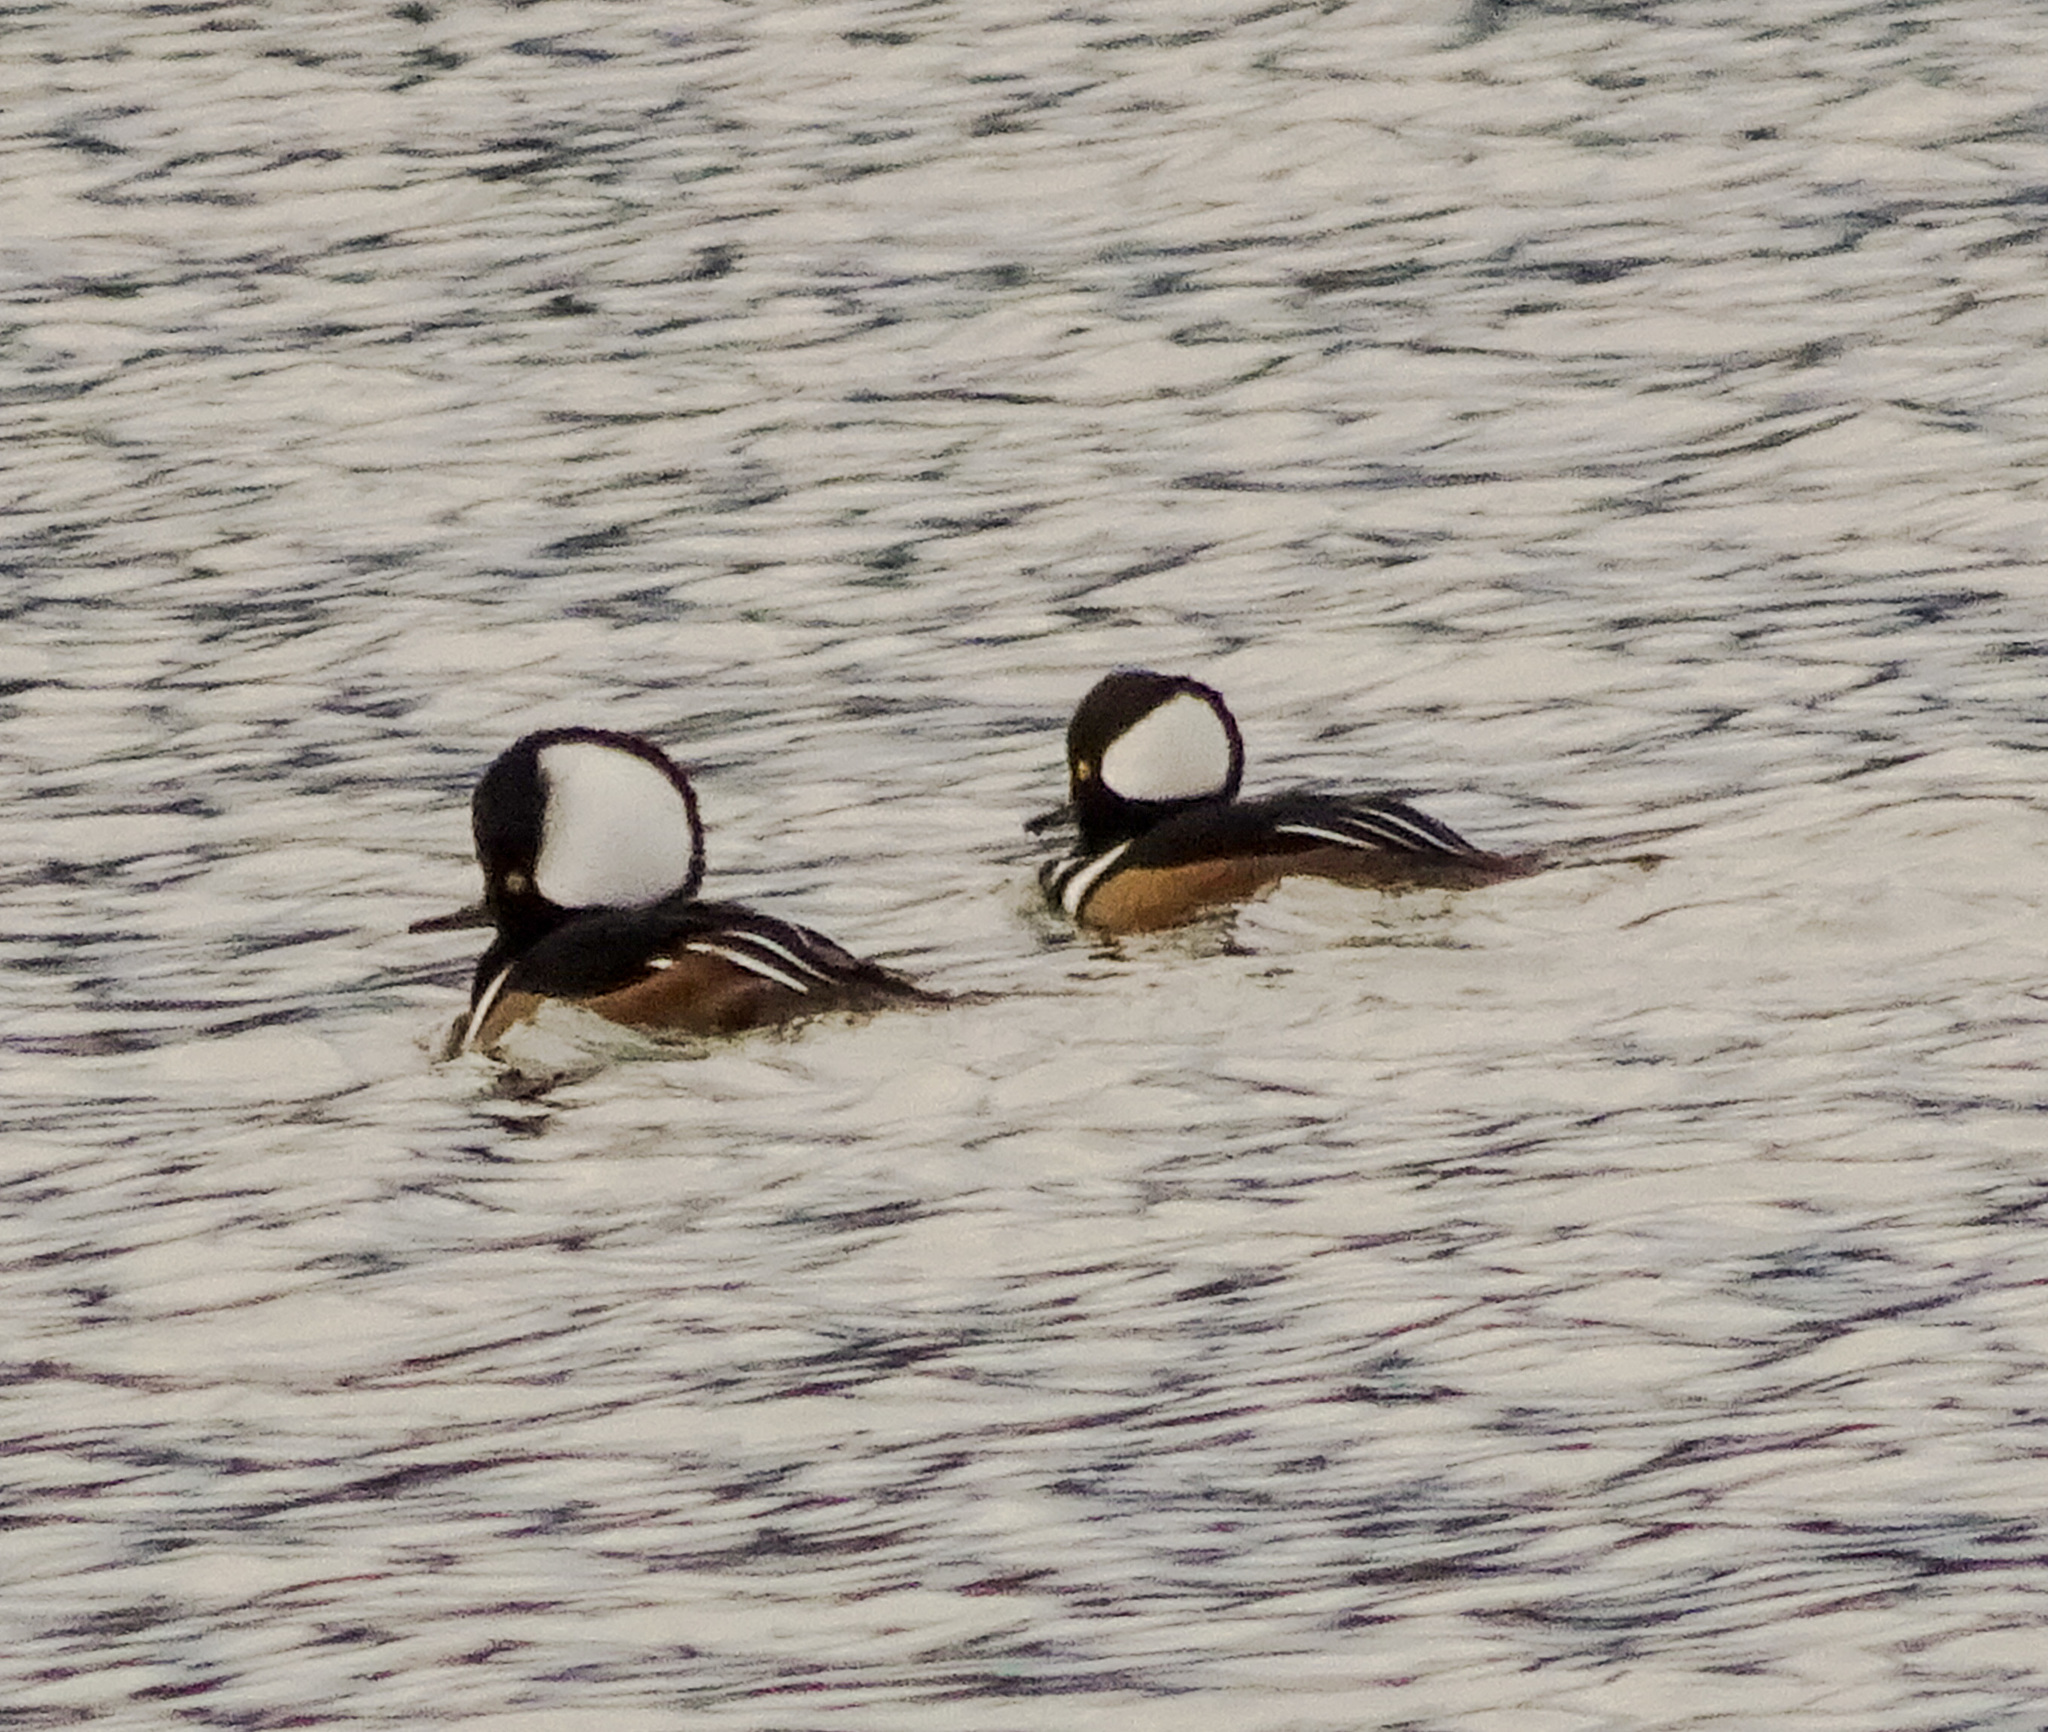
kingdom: Animalia
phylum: Chordata
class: Aves
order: Anseriformes
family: Anatidae
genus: Lophodytes
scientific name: Lophodytes cucullatus
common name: Hooded merganser
